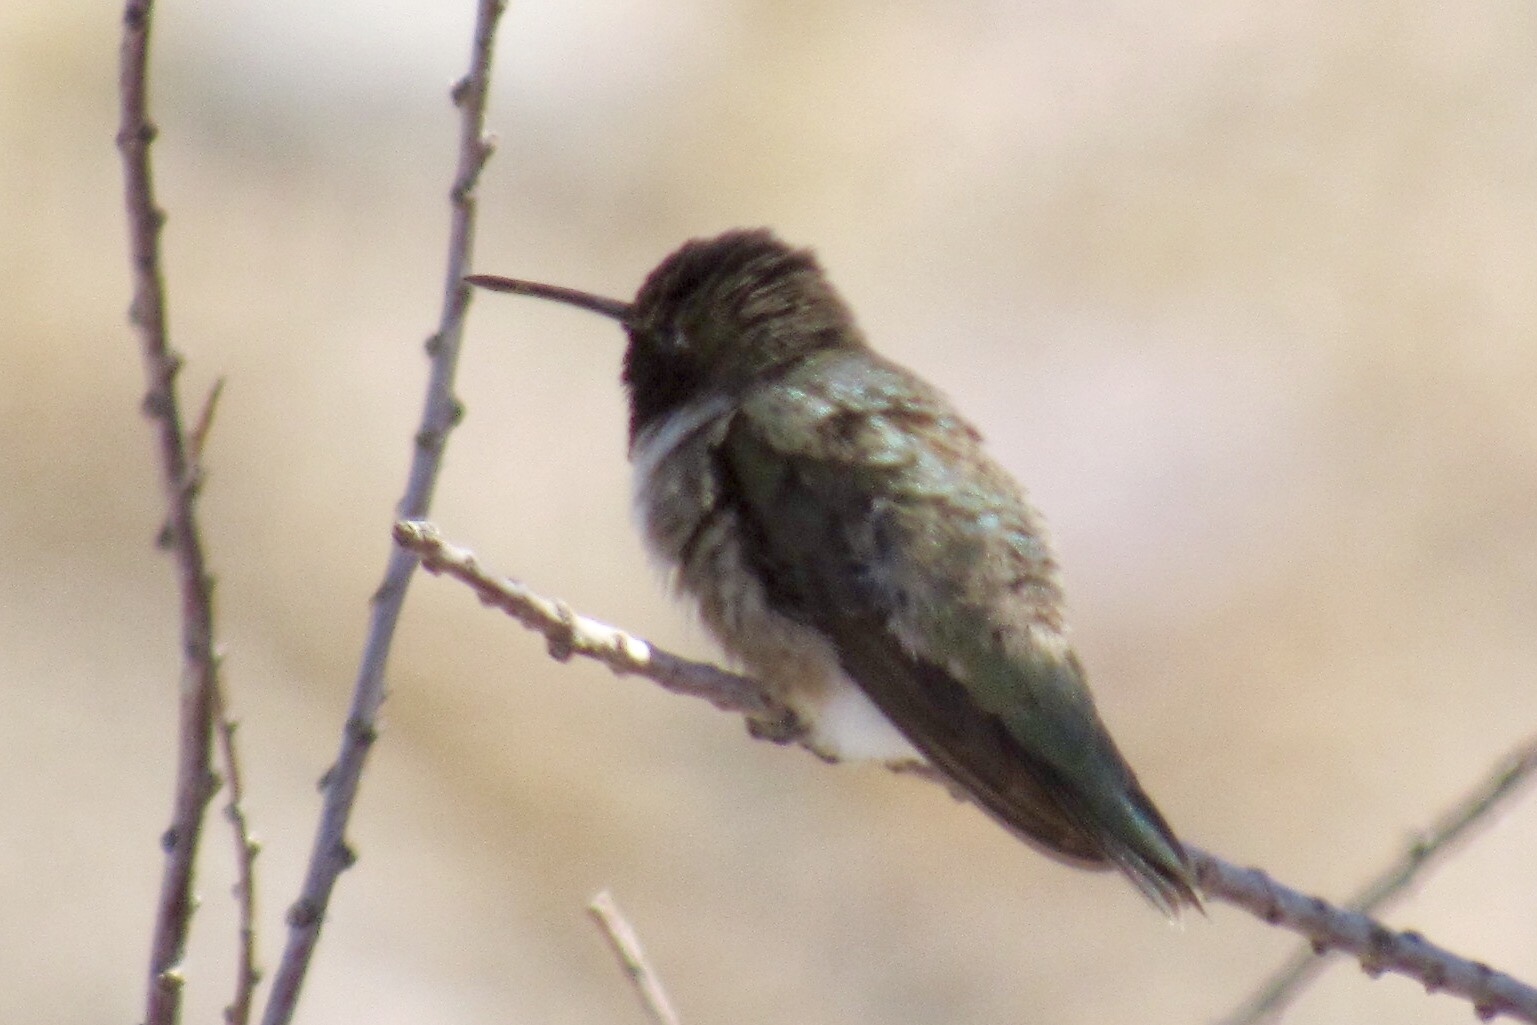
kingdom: Animalia
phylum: Chordata
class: Aves
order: Apodiformes
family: Trochilidae
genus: Archilochus
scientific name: Archilochus alexandri
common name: Black-chinned hummingbird
